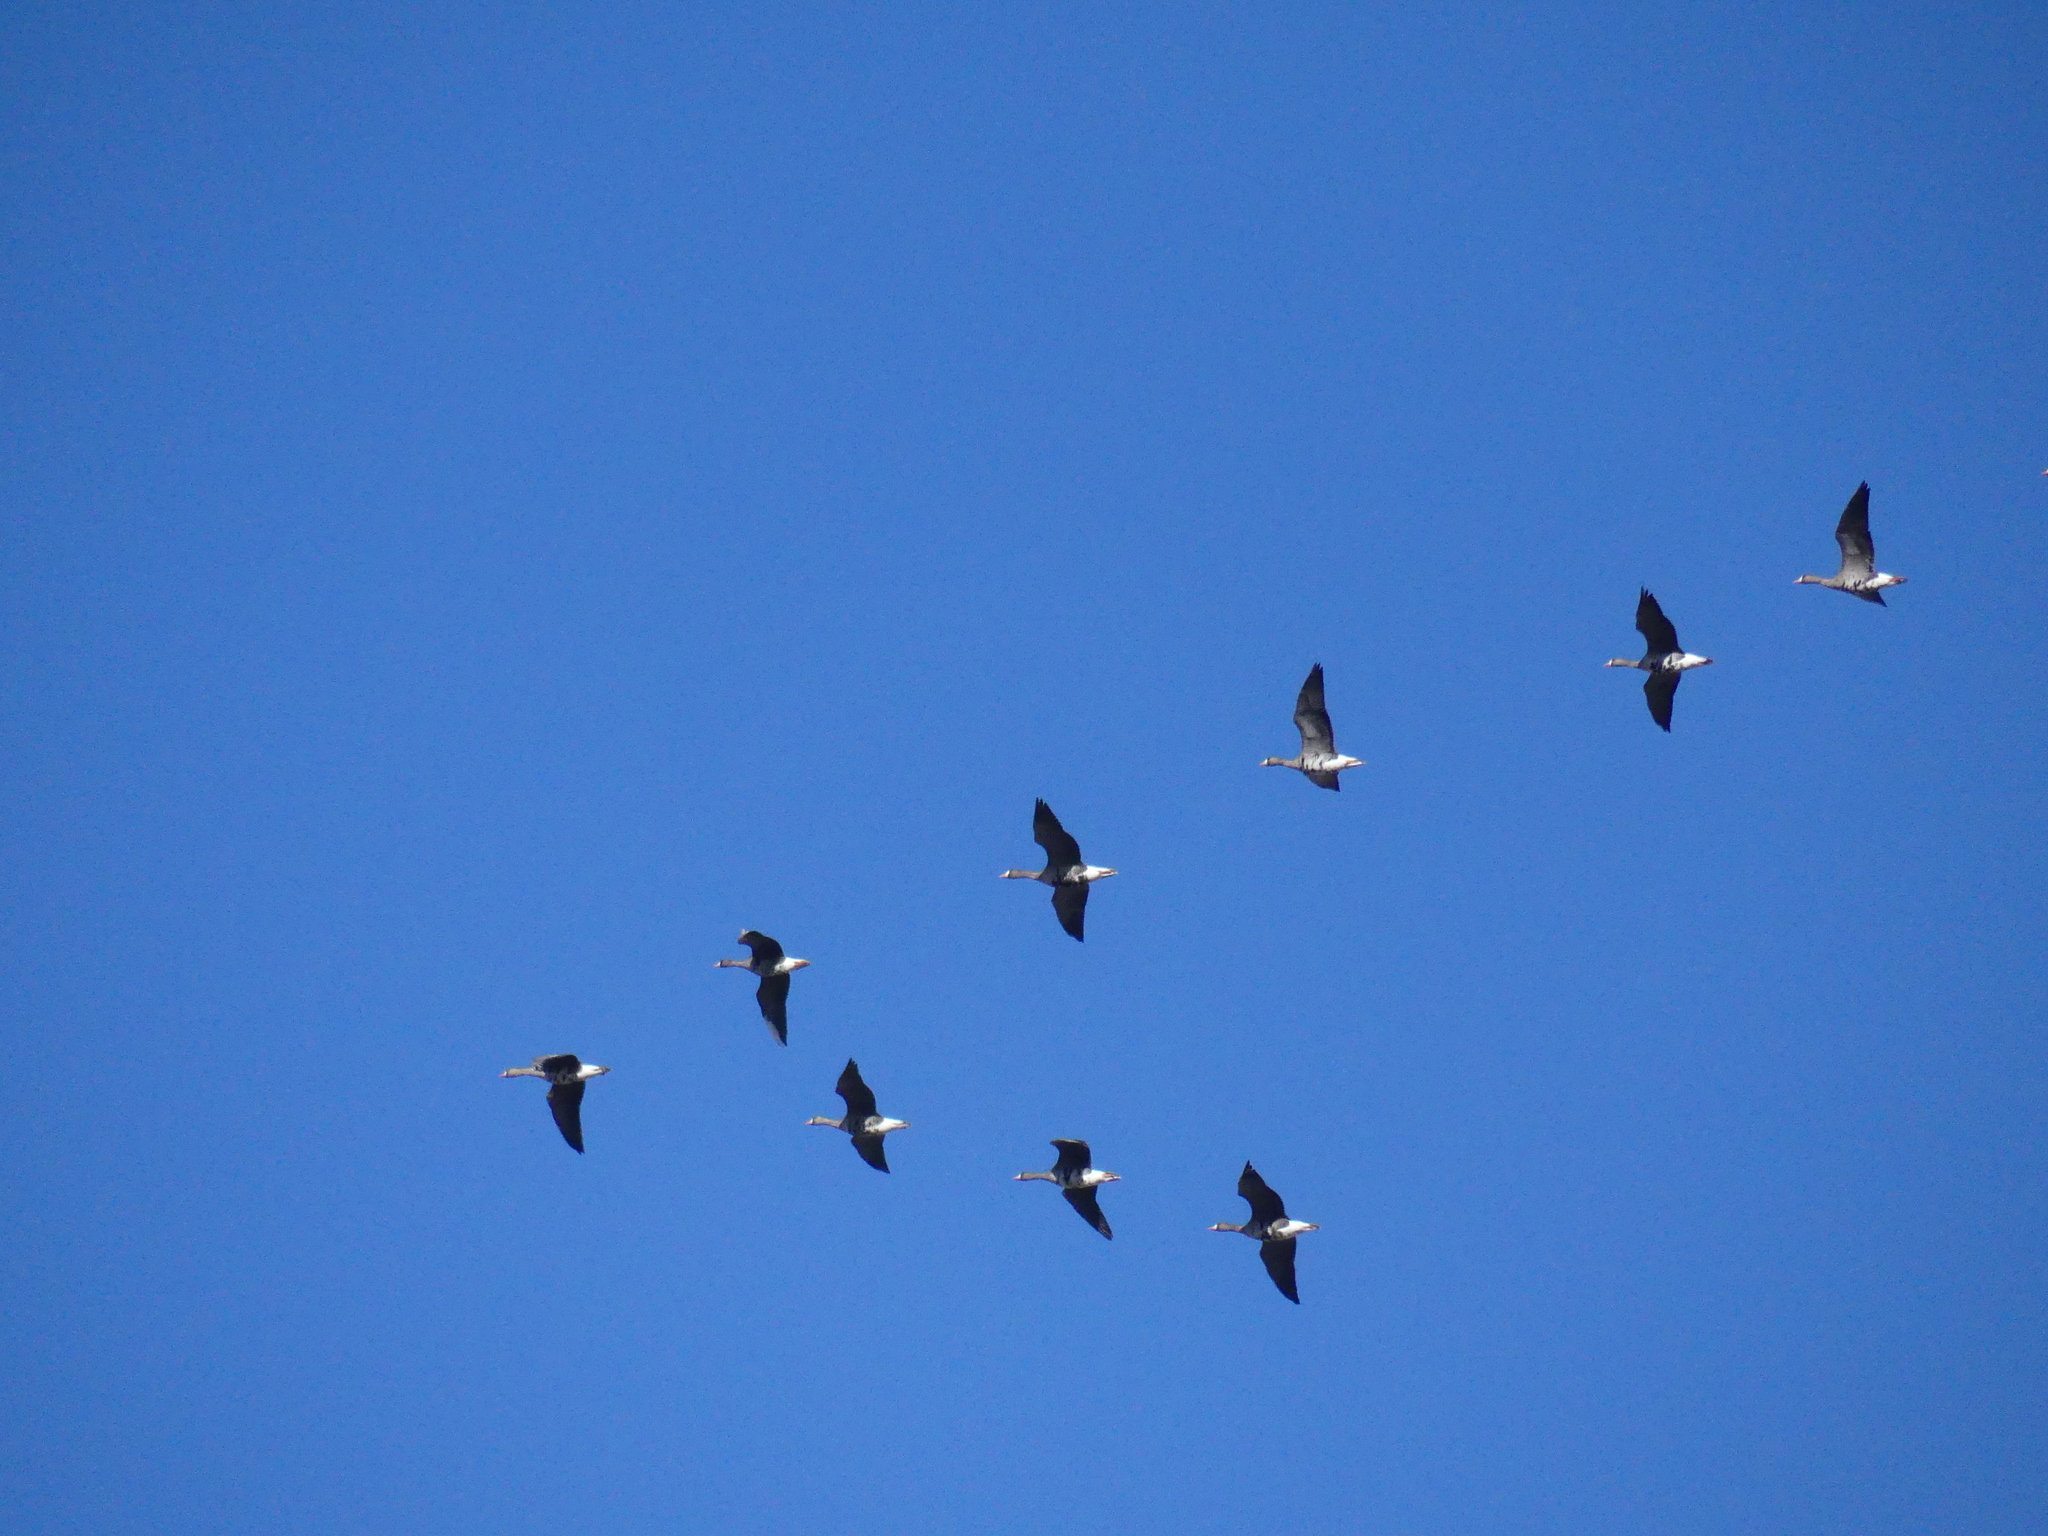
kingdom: Animalia
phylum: Chordata
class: Aves
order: Anseriformes
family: Anatidae
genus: Anser
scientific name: Anser albifrons
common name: Greater white-fronted goose
